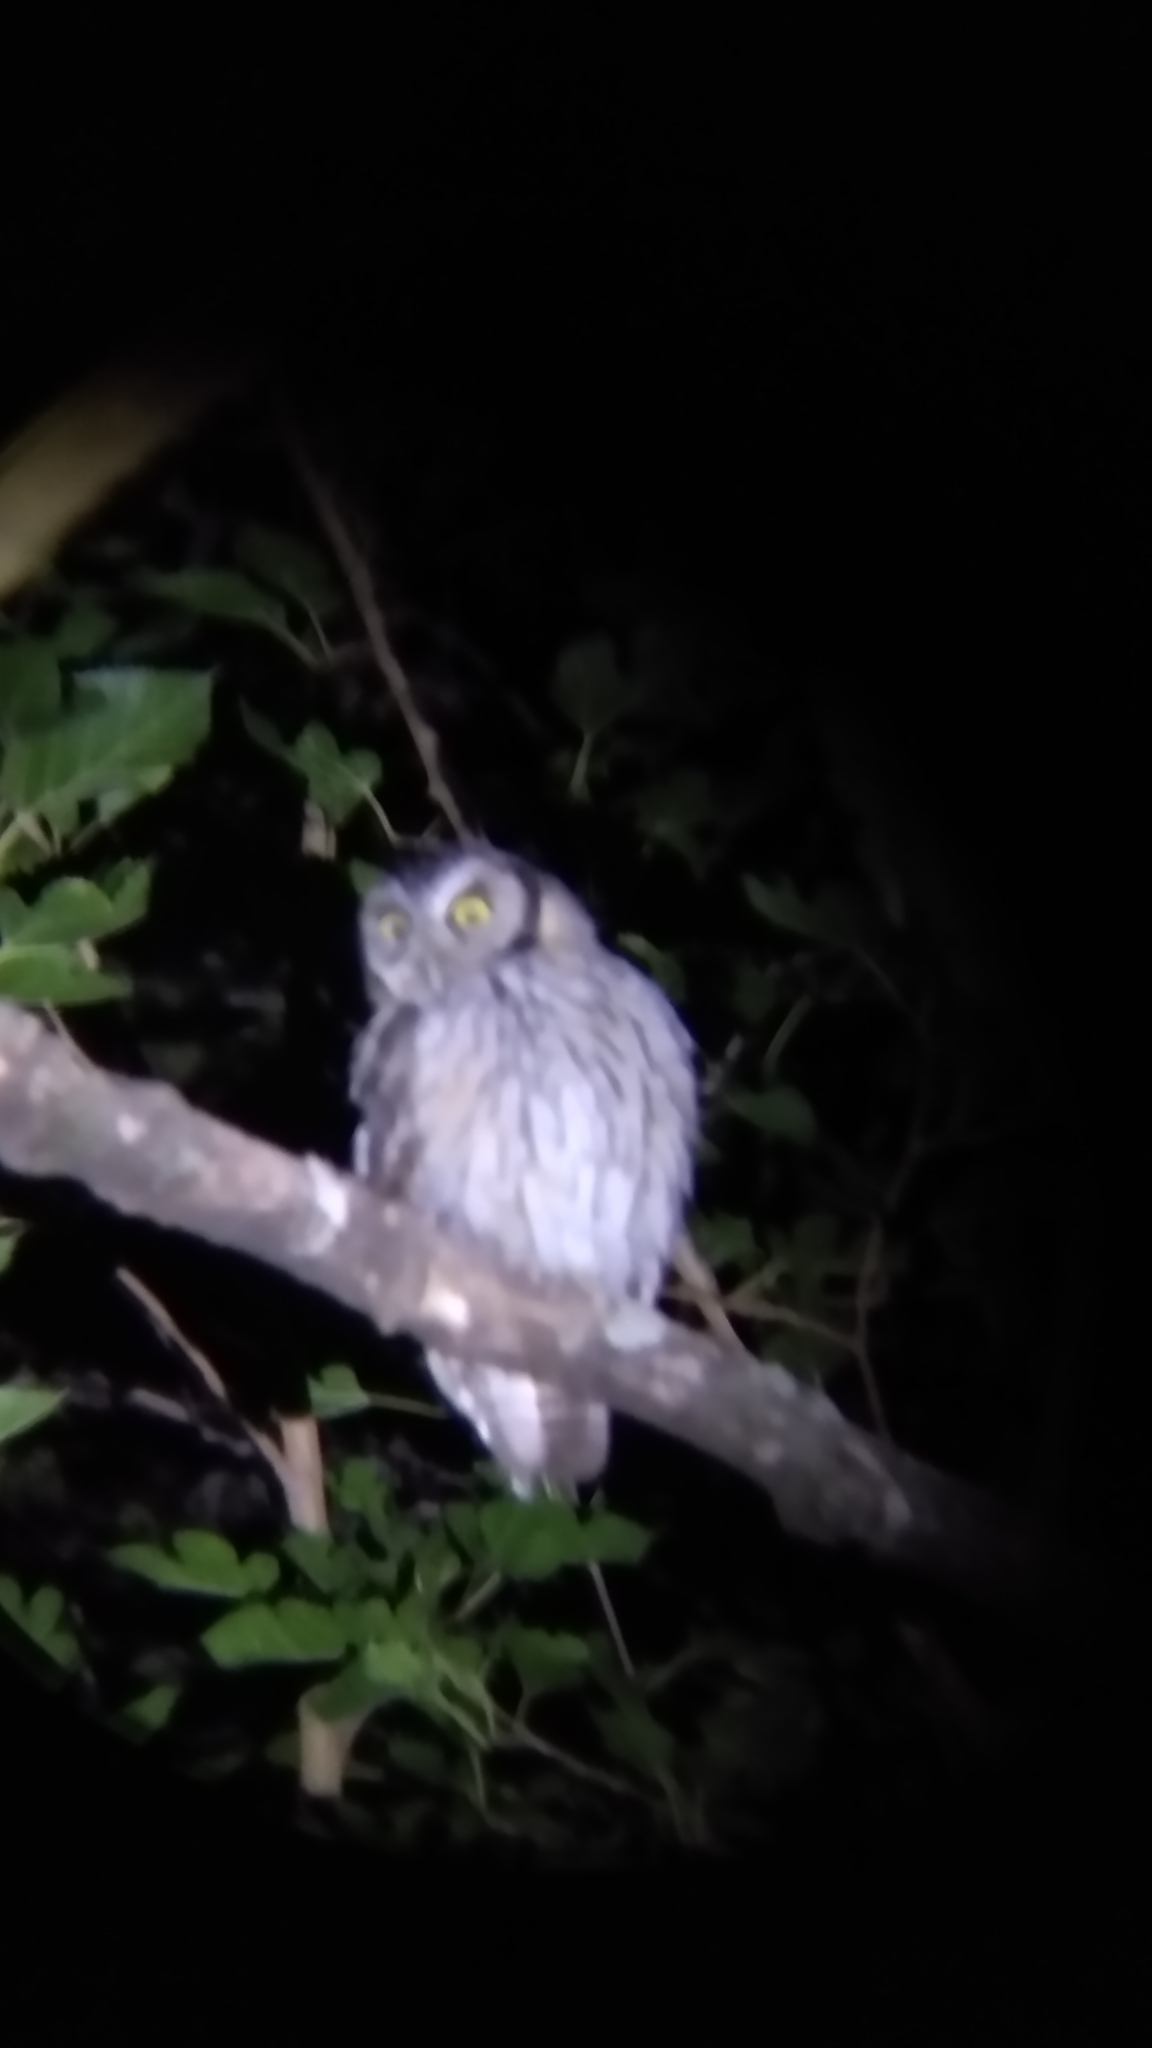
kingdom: Animalia
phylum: Chordata
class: Aves
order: Strigiformes
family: Strigidae
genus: Megascops
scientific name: Megascops choliba
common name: Tropical screech-owl
